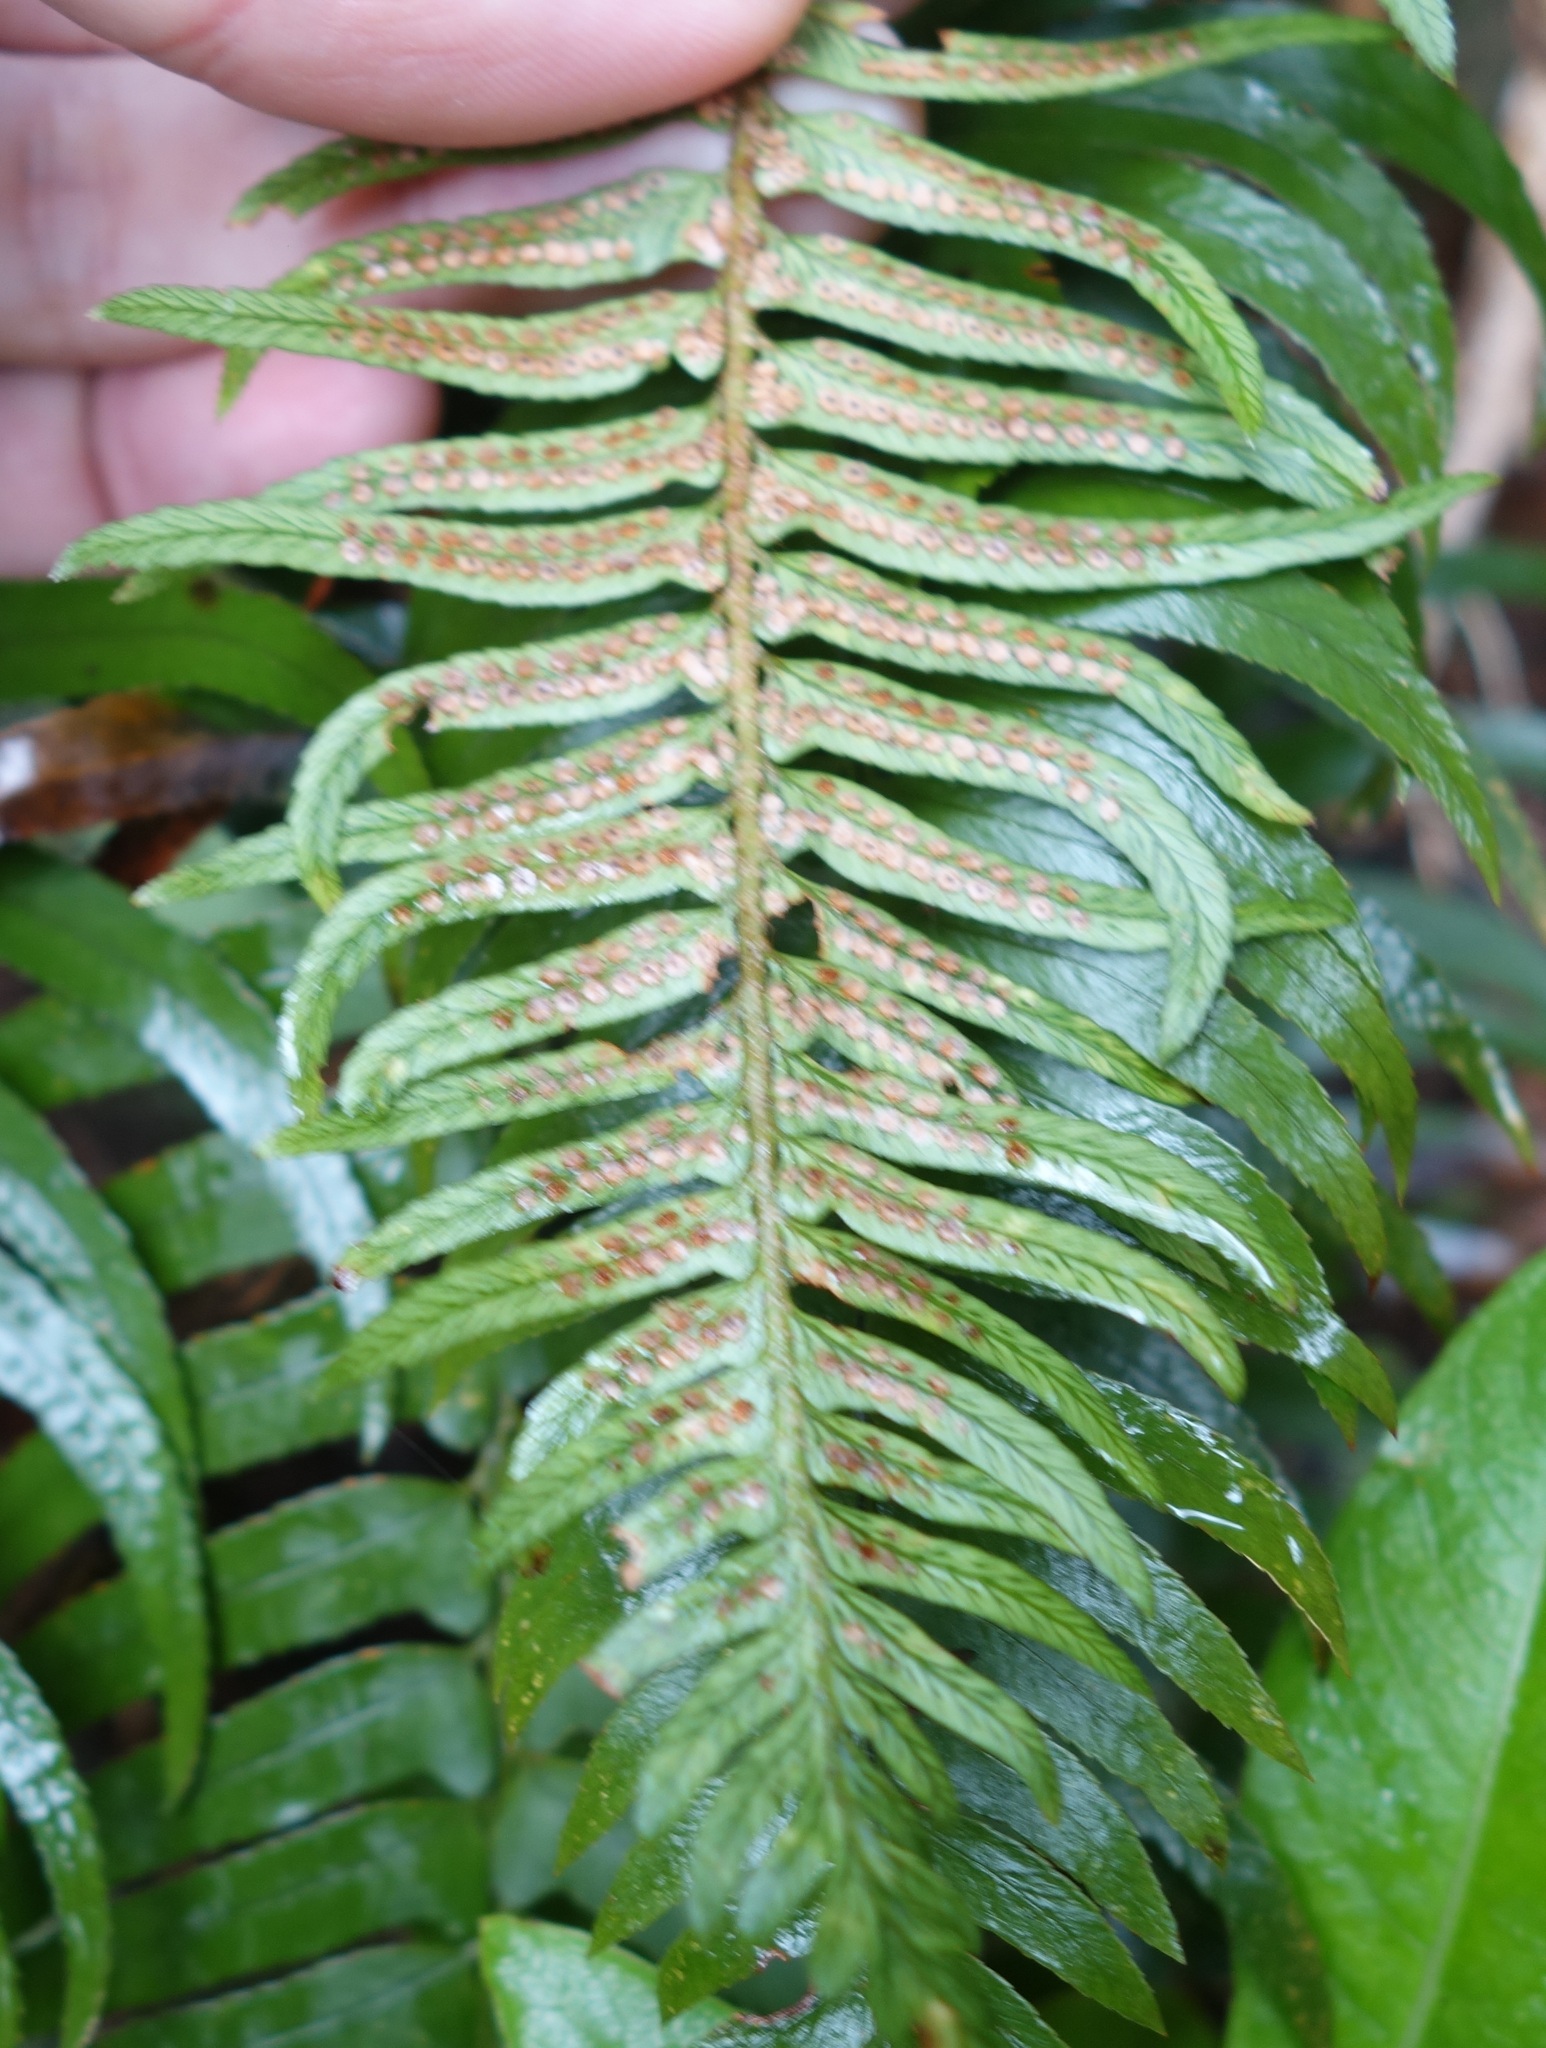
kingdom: Plantae
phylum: Tracheophyta
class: Polypodiopsida
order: Polypodiales
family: Dryopteridaceae
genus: Polystichum
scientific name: Polystichum falcinellum
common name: Madeira sword-fern
